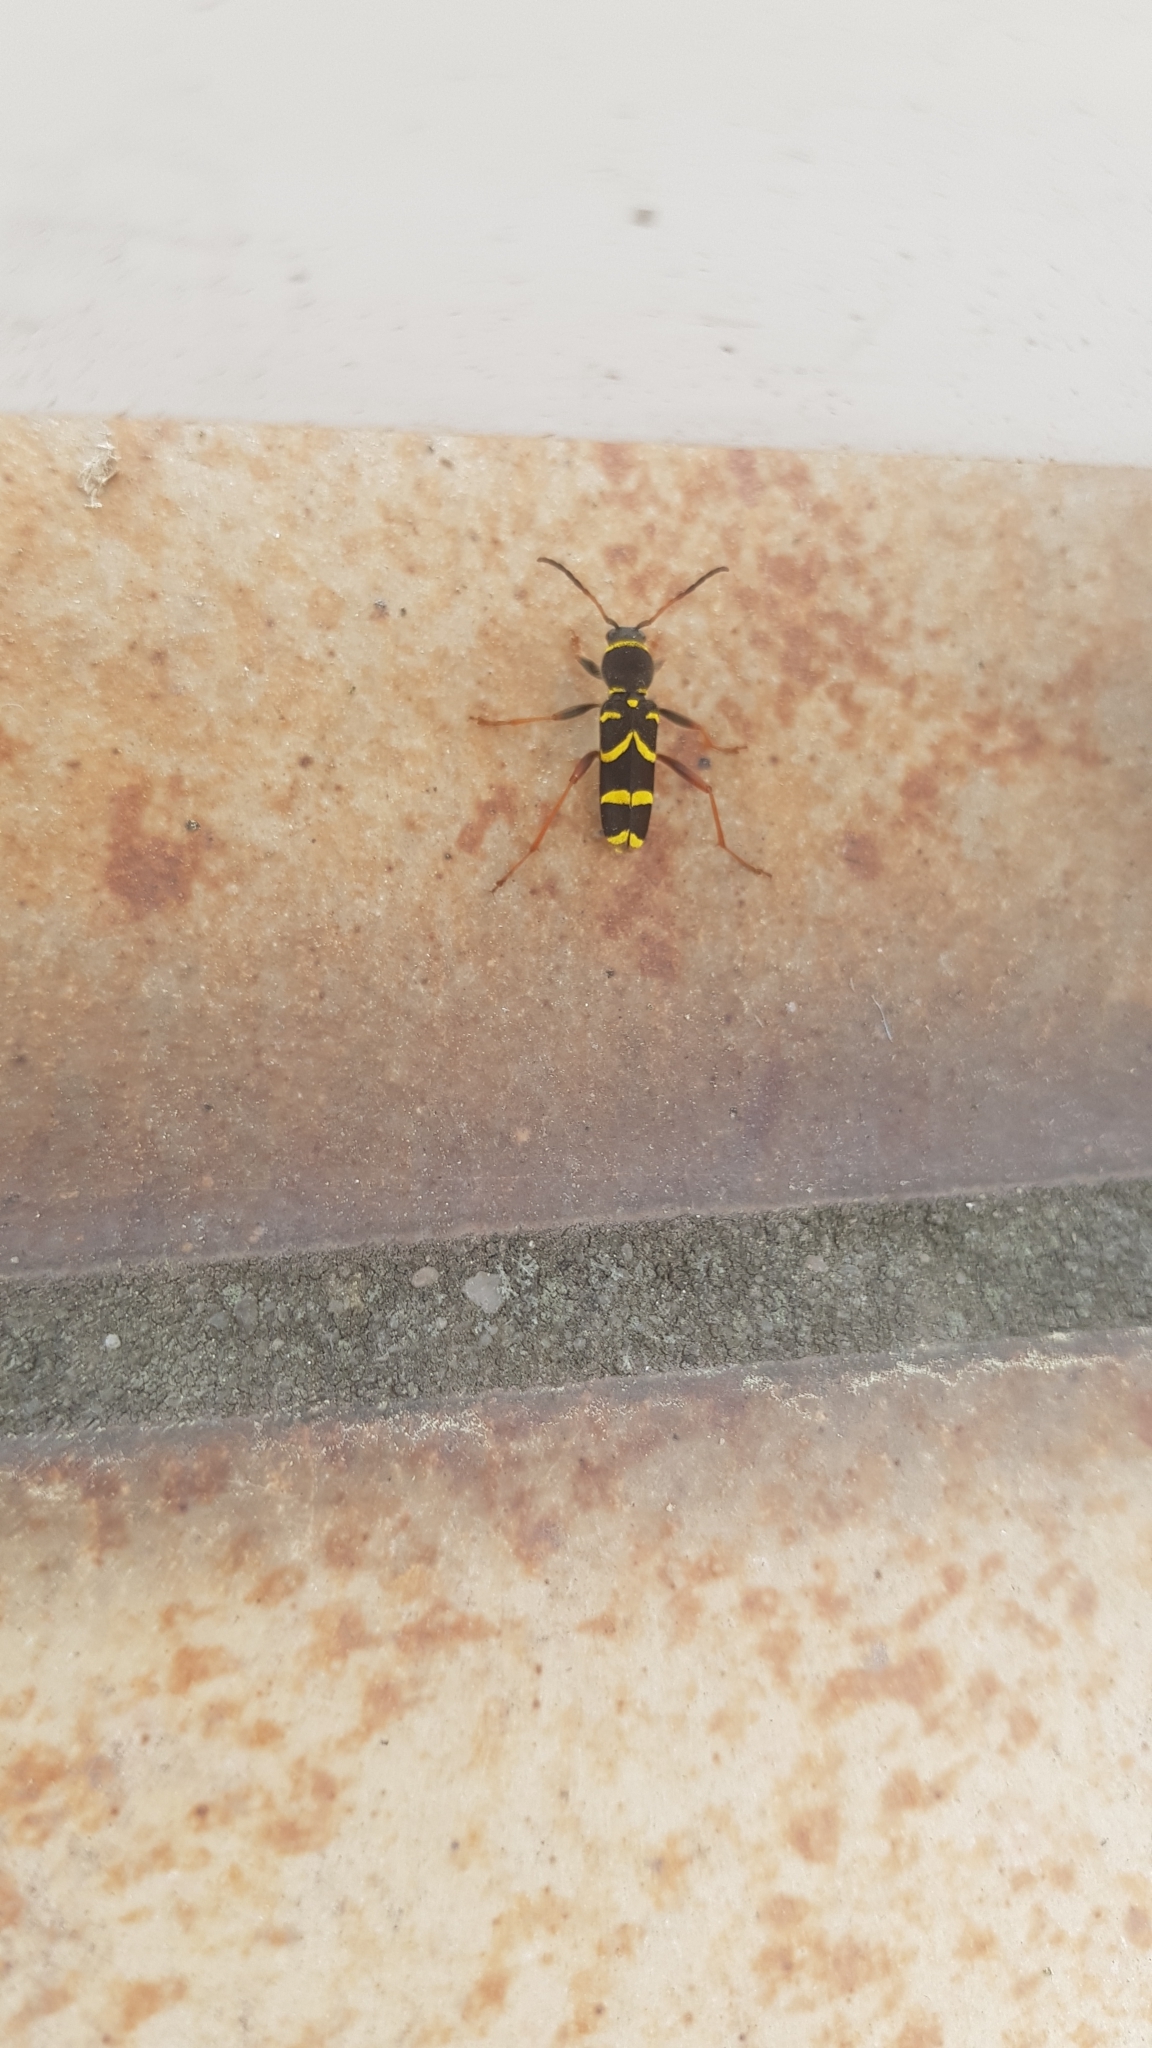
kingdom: Animalia
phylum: Arthropoda
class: Insecta
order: Coleoptera
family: Cerambycidae
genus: Clytus
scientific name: Clytus arietis
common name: Wasp beetle
